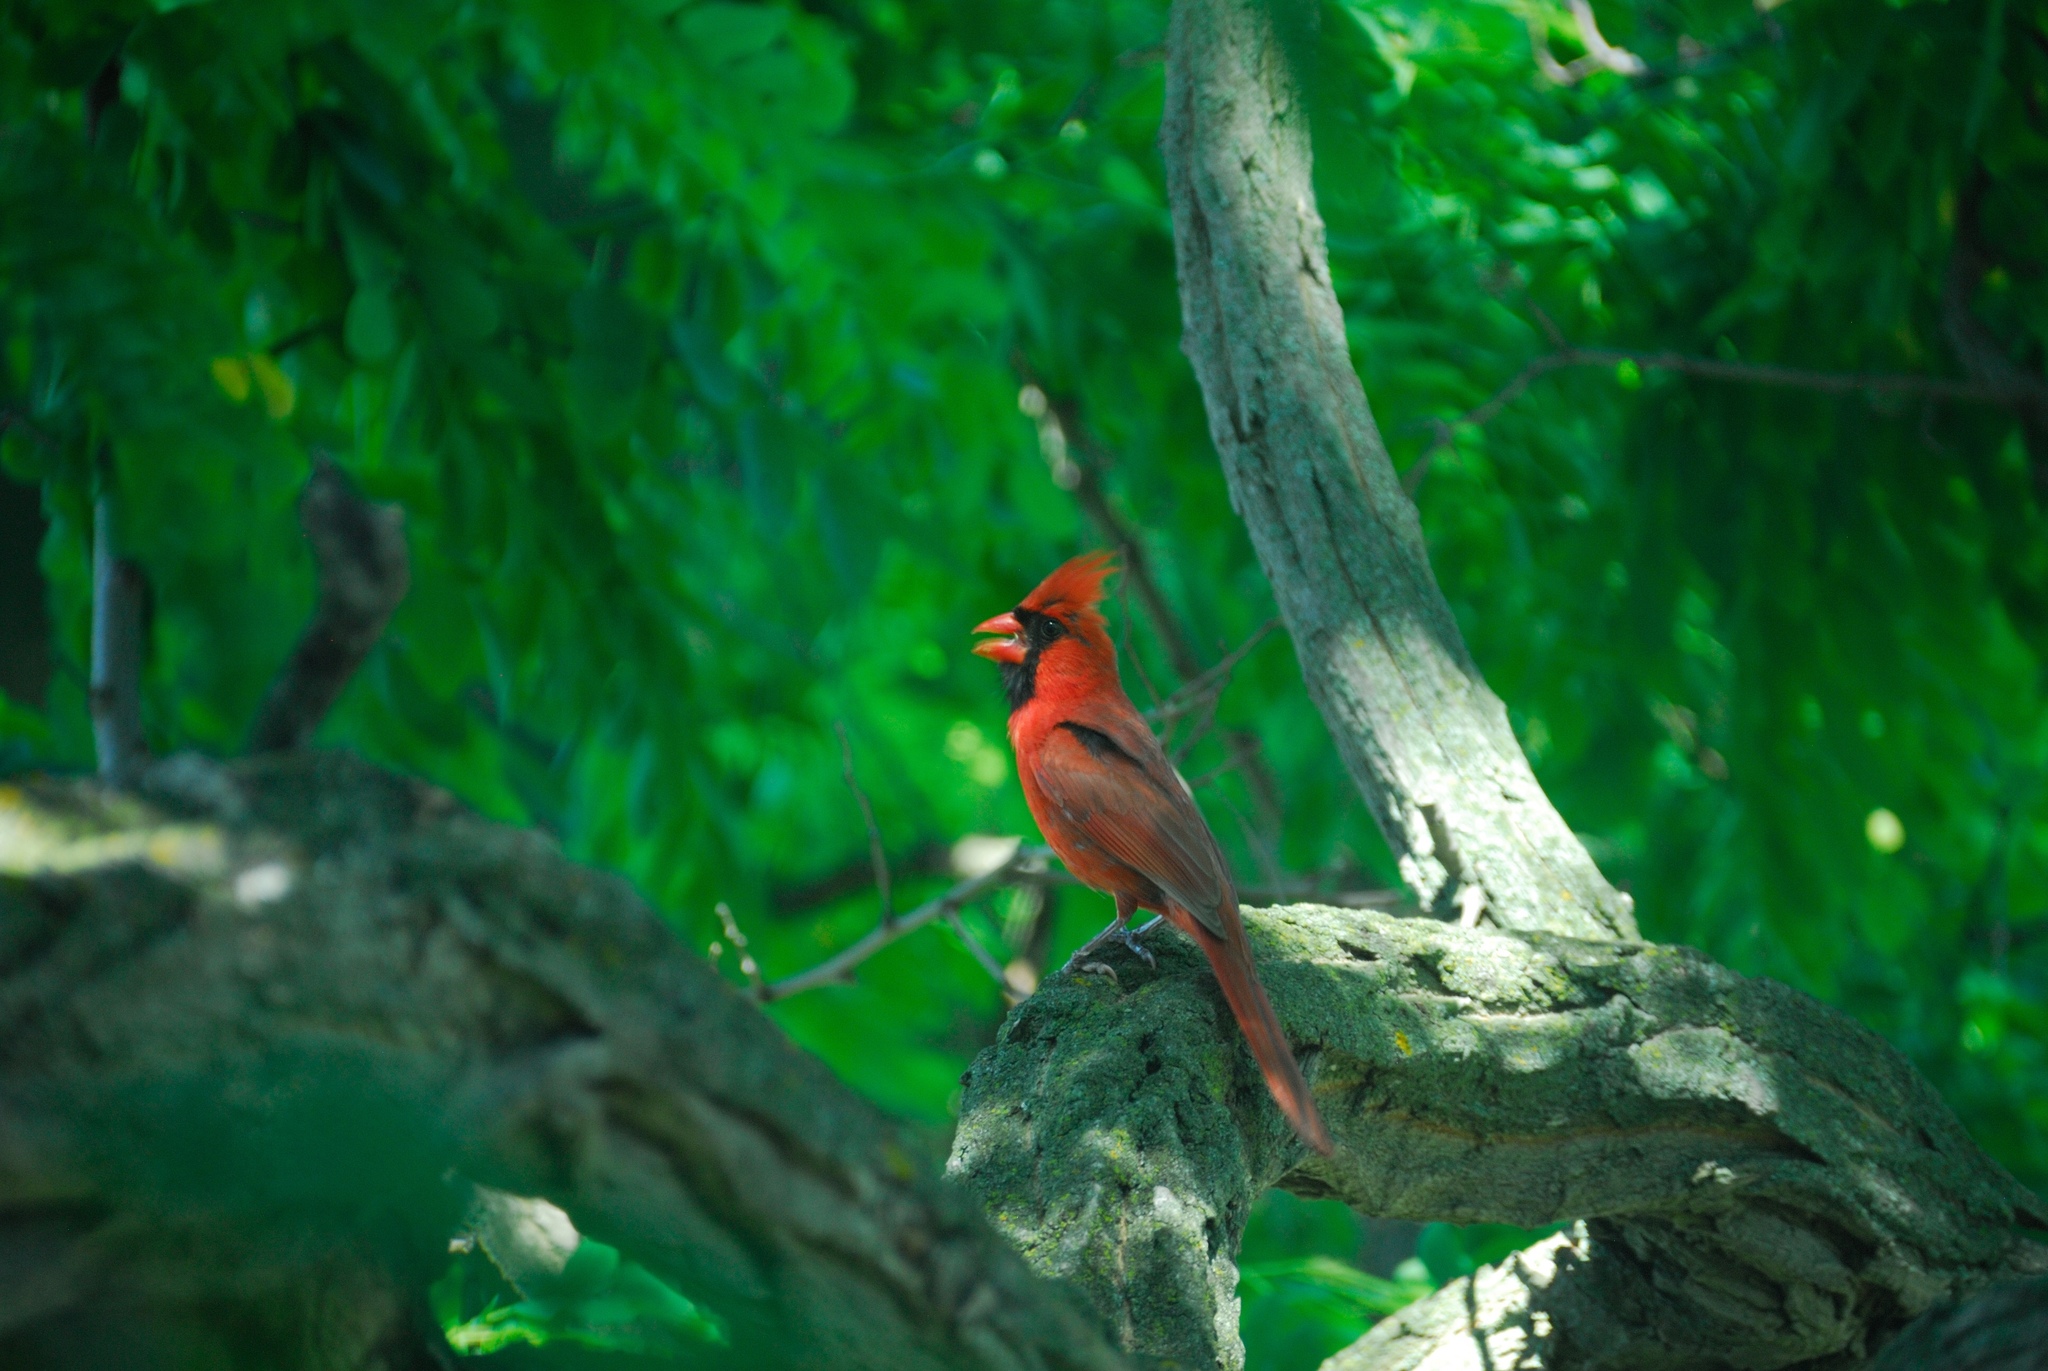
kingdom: Animalia
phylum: Chordata
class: Aves
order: Passeriformes
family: Cardinalidae
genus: Cardinalis
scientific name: Cardinalis cardinalis
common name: Northern cardinal
